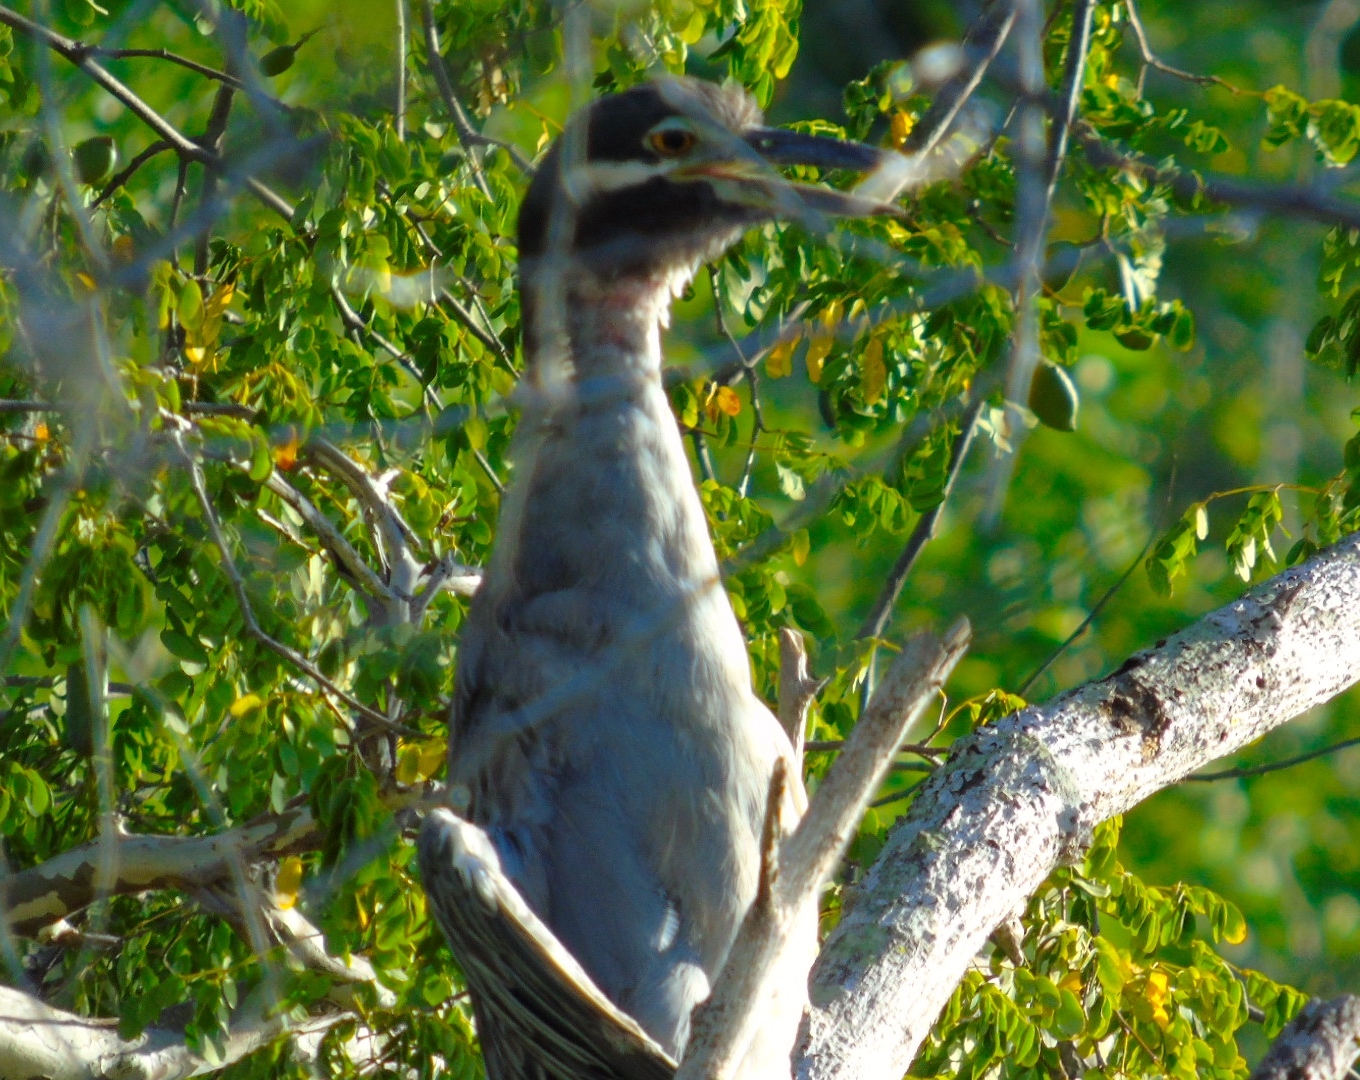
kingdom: Animalia
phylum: Chordata
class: Aves
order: Pelecaniformes
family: Ardeidae
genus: Nyctanassa
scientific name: Nyctanassa violacea
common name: Yellow-crowned night heron
